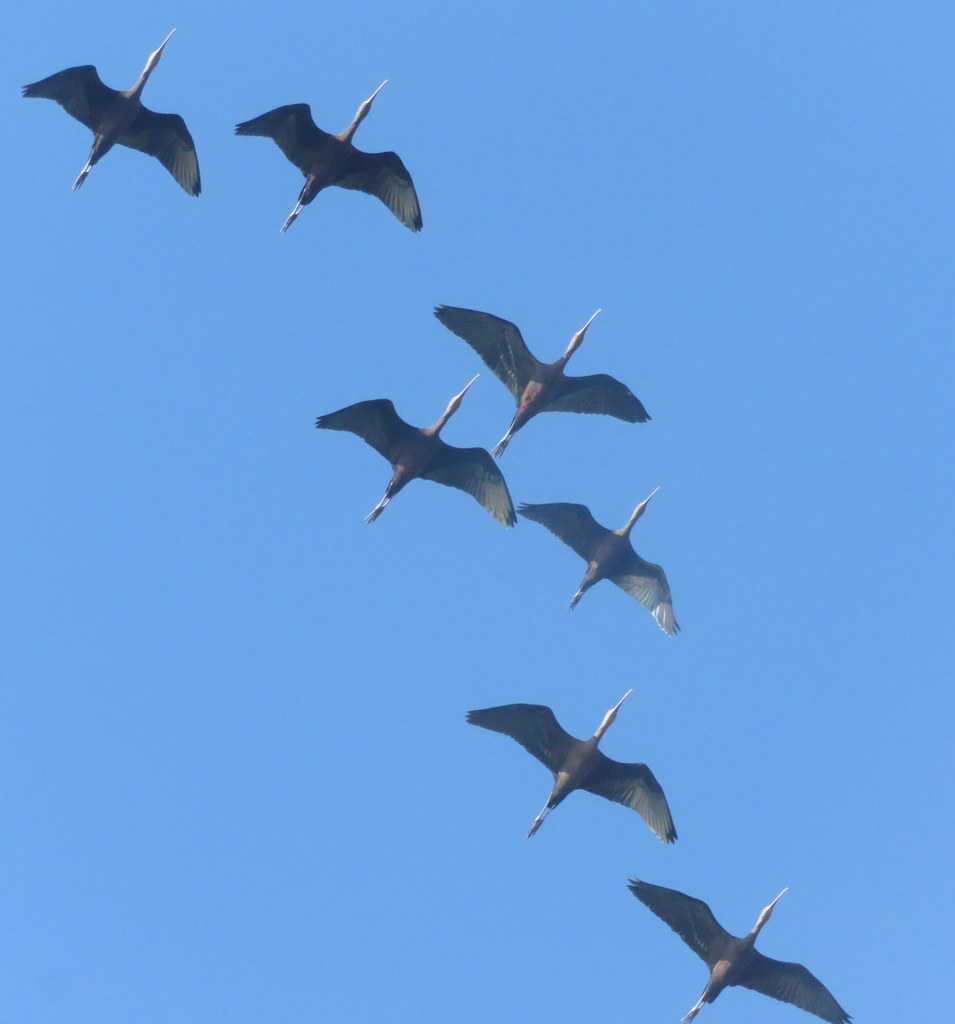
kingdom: Animalia
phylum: Chordata
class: Aves
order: Pelecaniformes
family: Threskiornithidae
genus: Plegadis
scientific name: Plegadis chihi
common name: White-faced ibis
